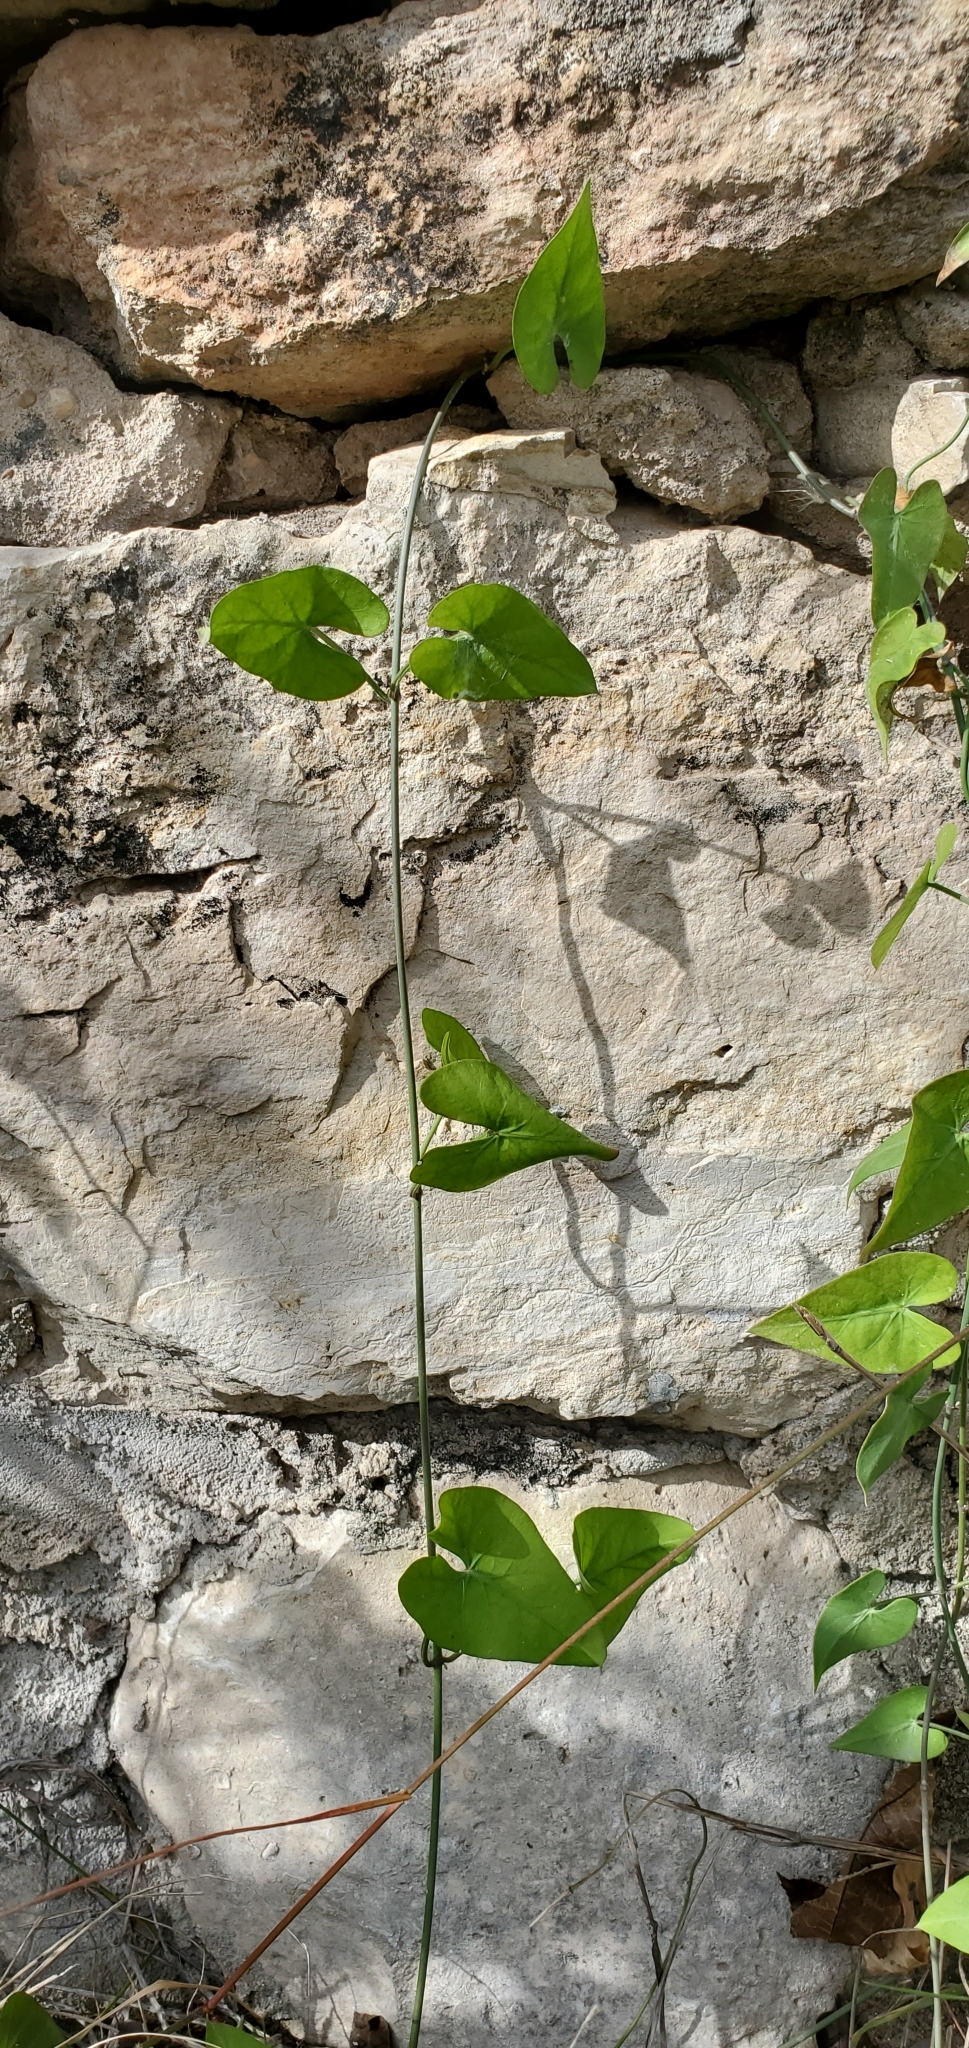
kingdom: Plantae
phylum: Tracheophyta
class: Magnoliopsida
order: Gentianales
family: Apocynaceae
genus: Funastrum
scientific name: Funastrum cynanchoides
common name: Climbing-milkweed
